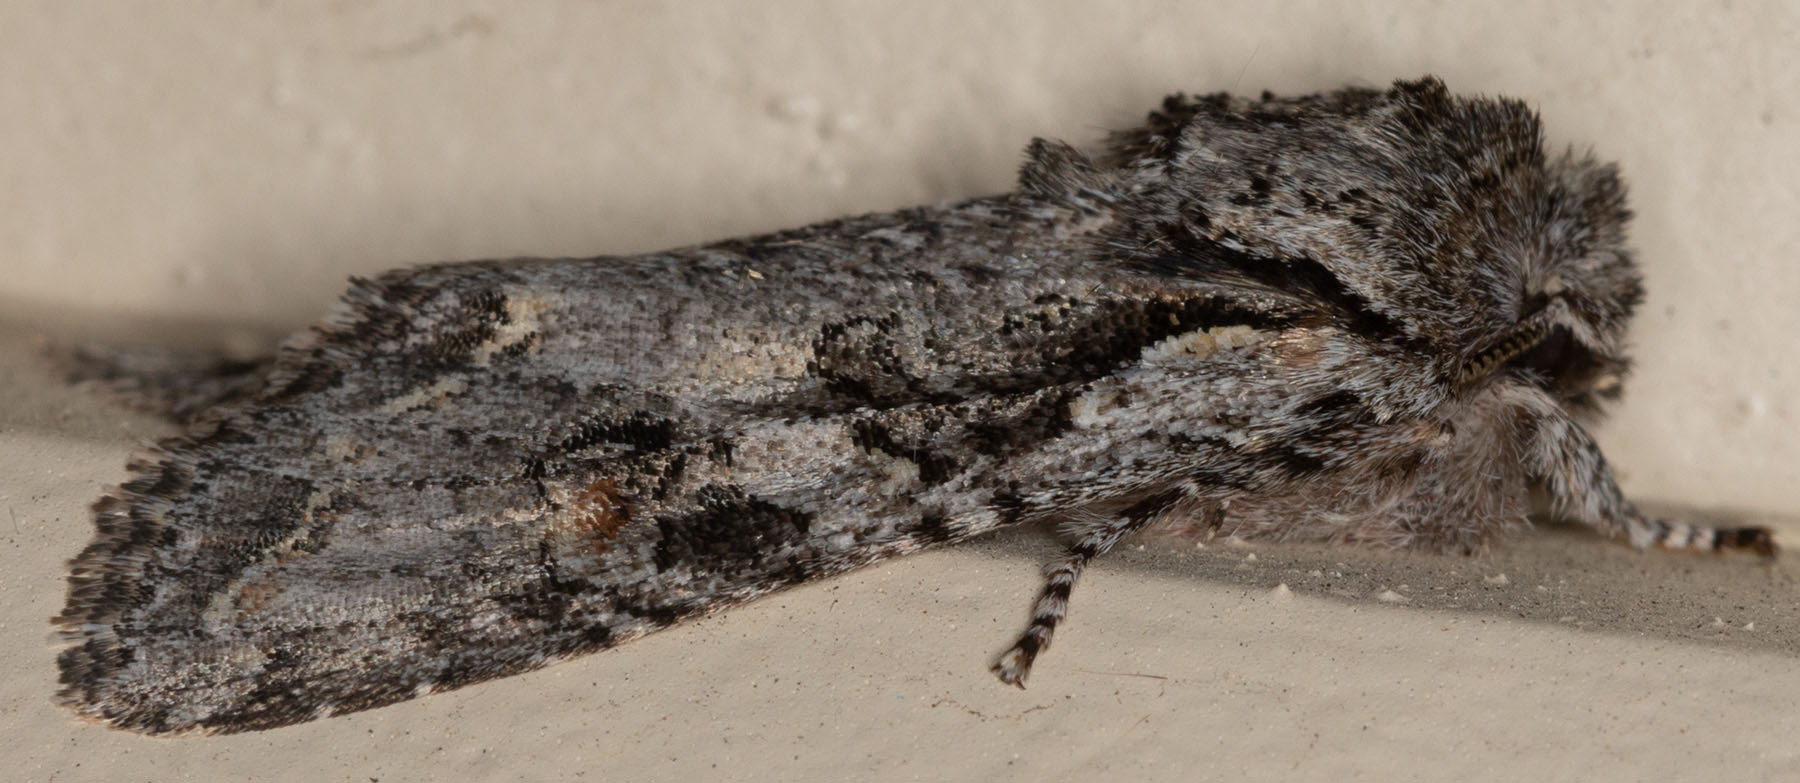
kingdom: Animalia
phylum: Arthropoda
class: Insecta
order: Lepidoptera
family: Noctuidae
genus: Egira
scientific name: Egira hiemalis
